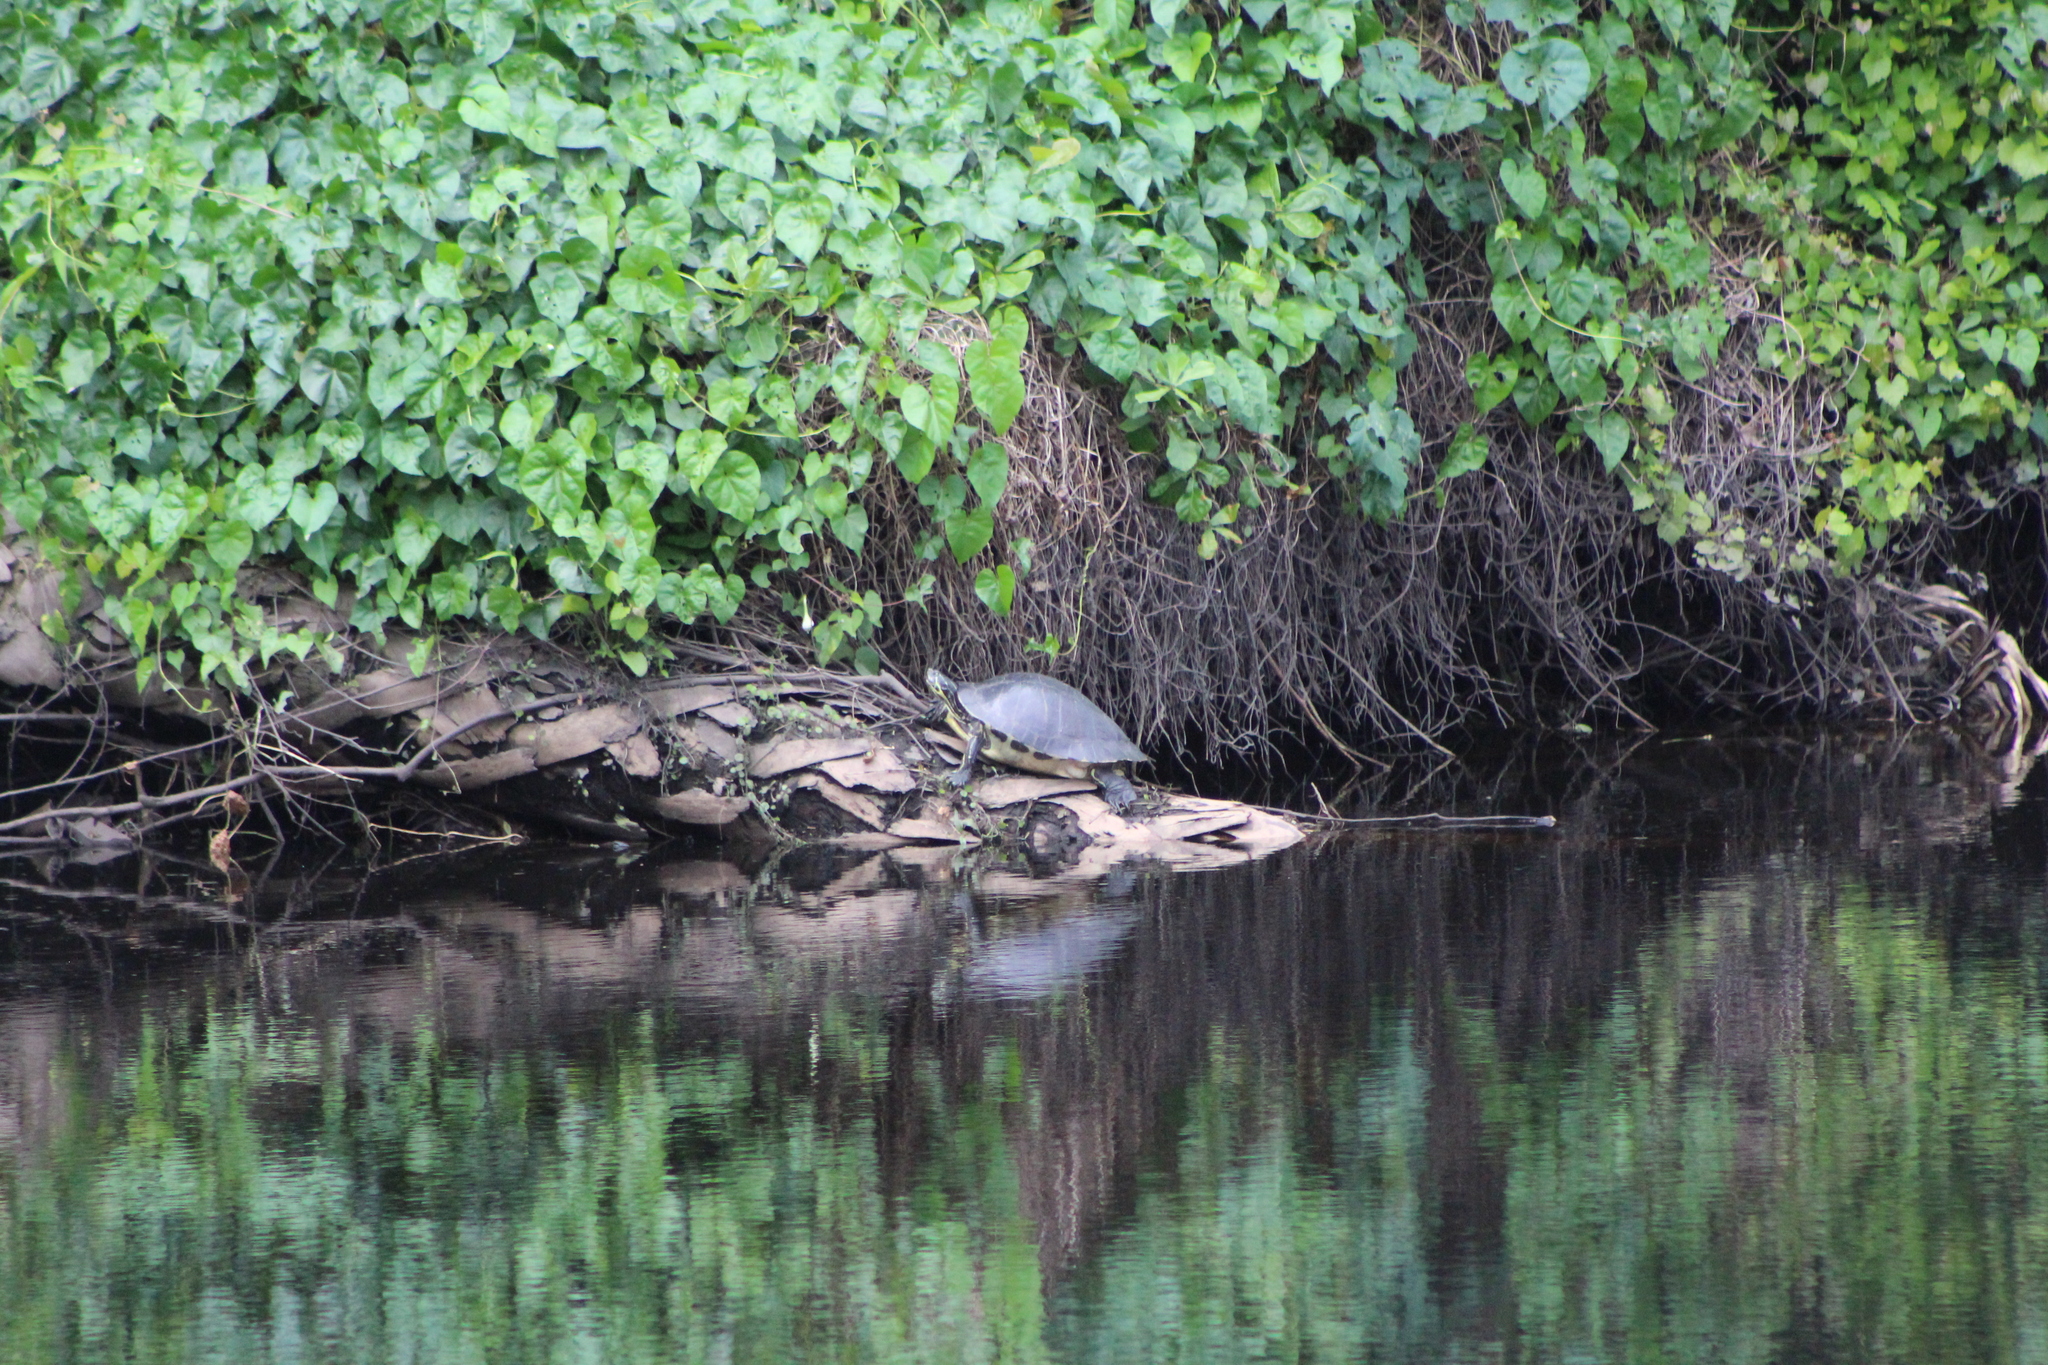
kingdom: Animalia
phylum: Chordata
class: Testudines
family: Emydidae
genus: Pseudemys
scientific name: Pseudemys peninsularis
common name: Peninsula cooter
